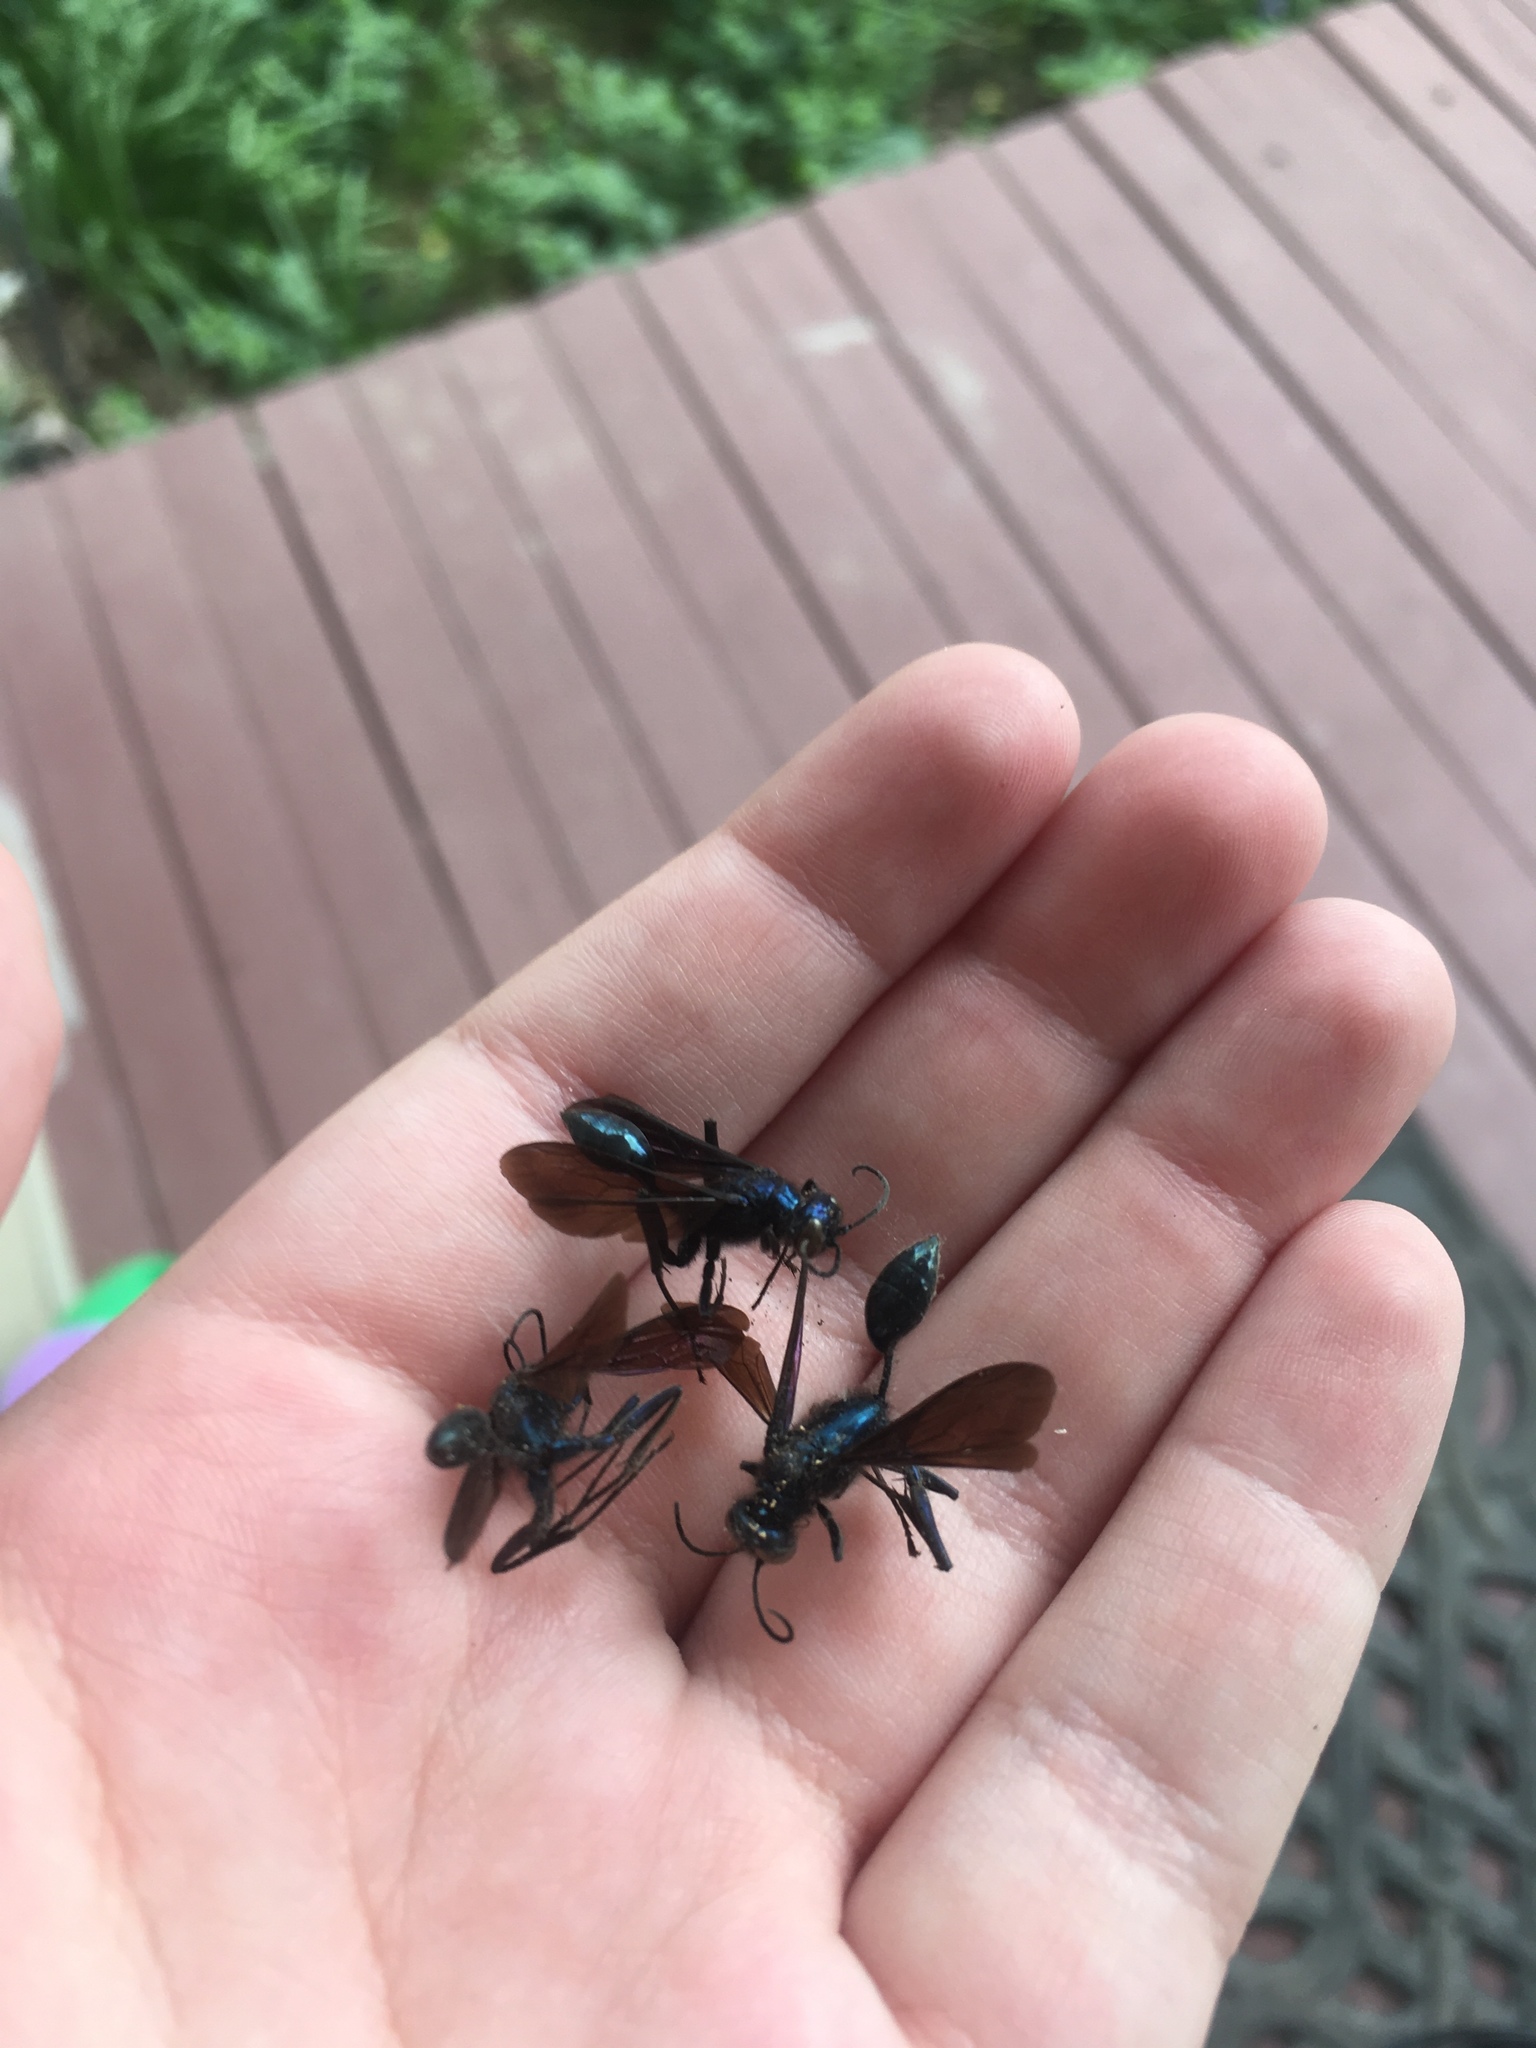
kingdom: Animalia
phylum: Arthropoda
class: Insecta
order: Hymenoptera
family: Sphecidae
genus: Chalybion
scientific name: Chalybion californicum
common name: Mud dauber
